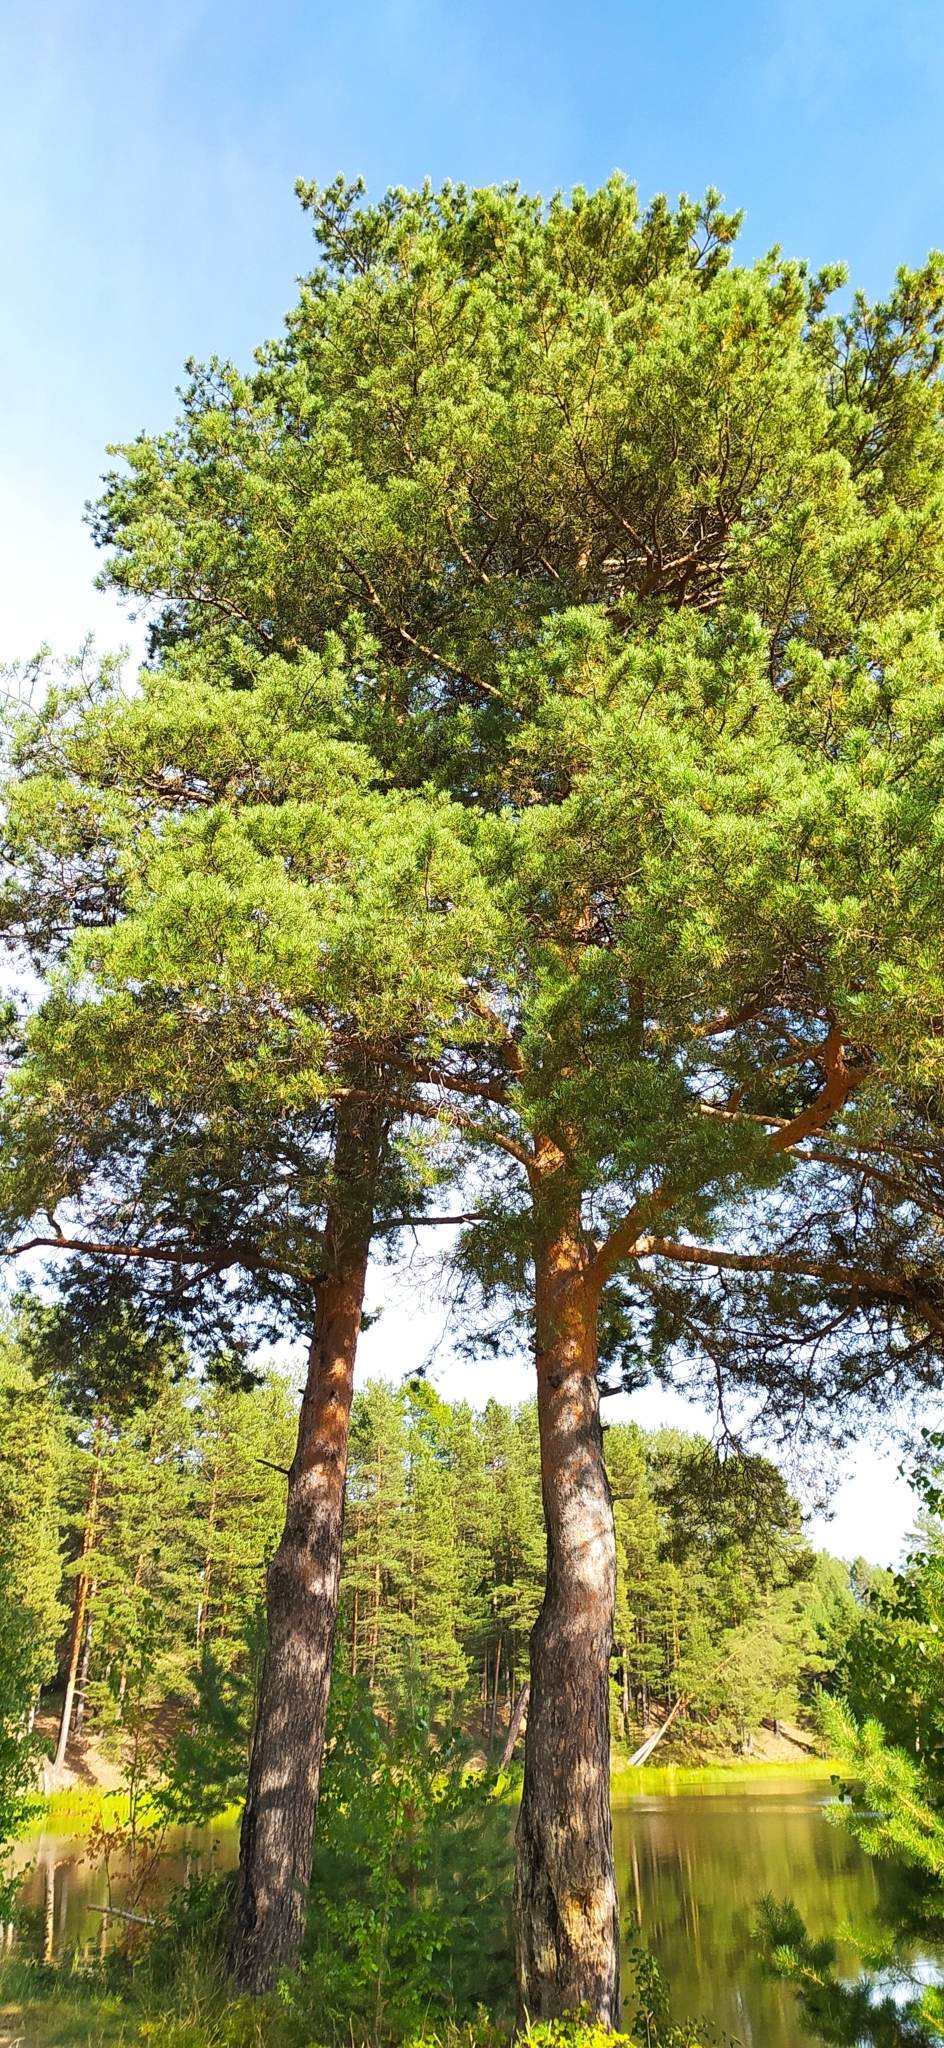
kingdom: Plantae
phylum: Tracheophyta
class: Pinopsida
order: Pinales
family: Pinaceae
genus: Pinus
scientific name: Pinus sylvestris
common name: Scots pine
